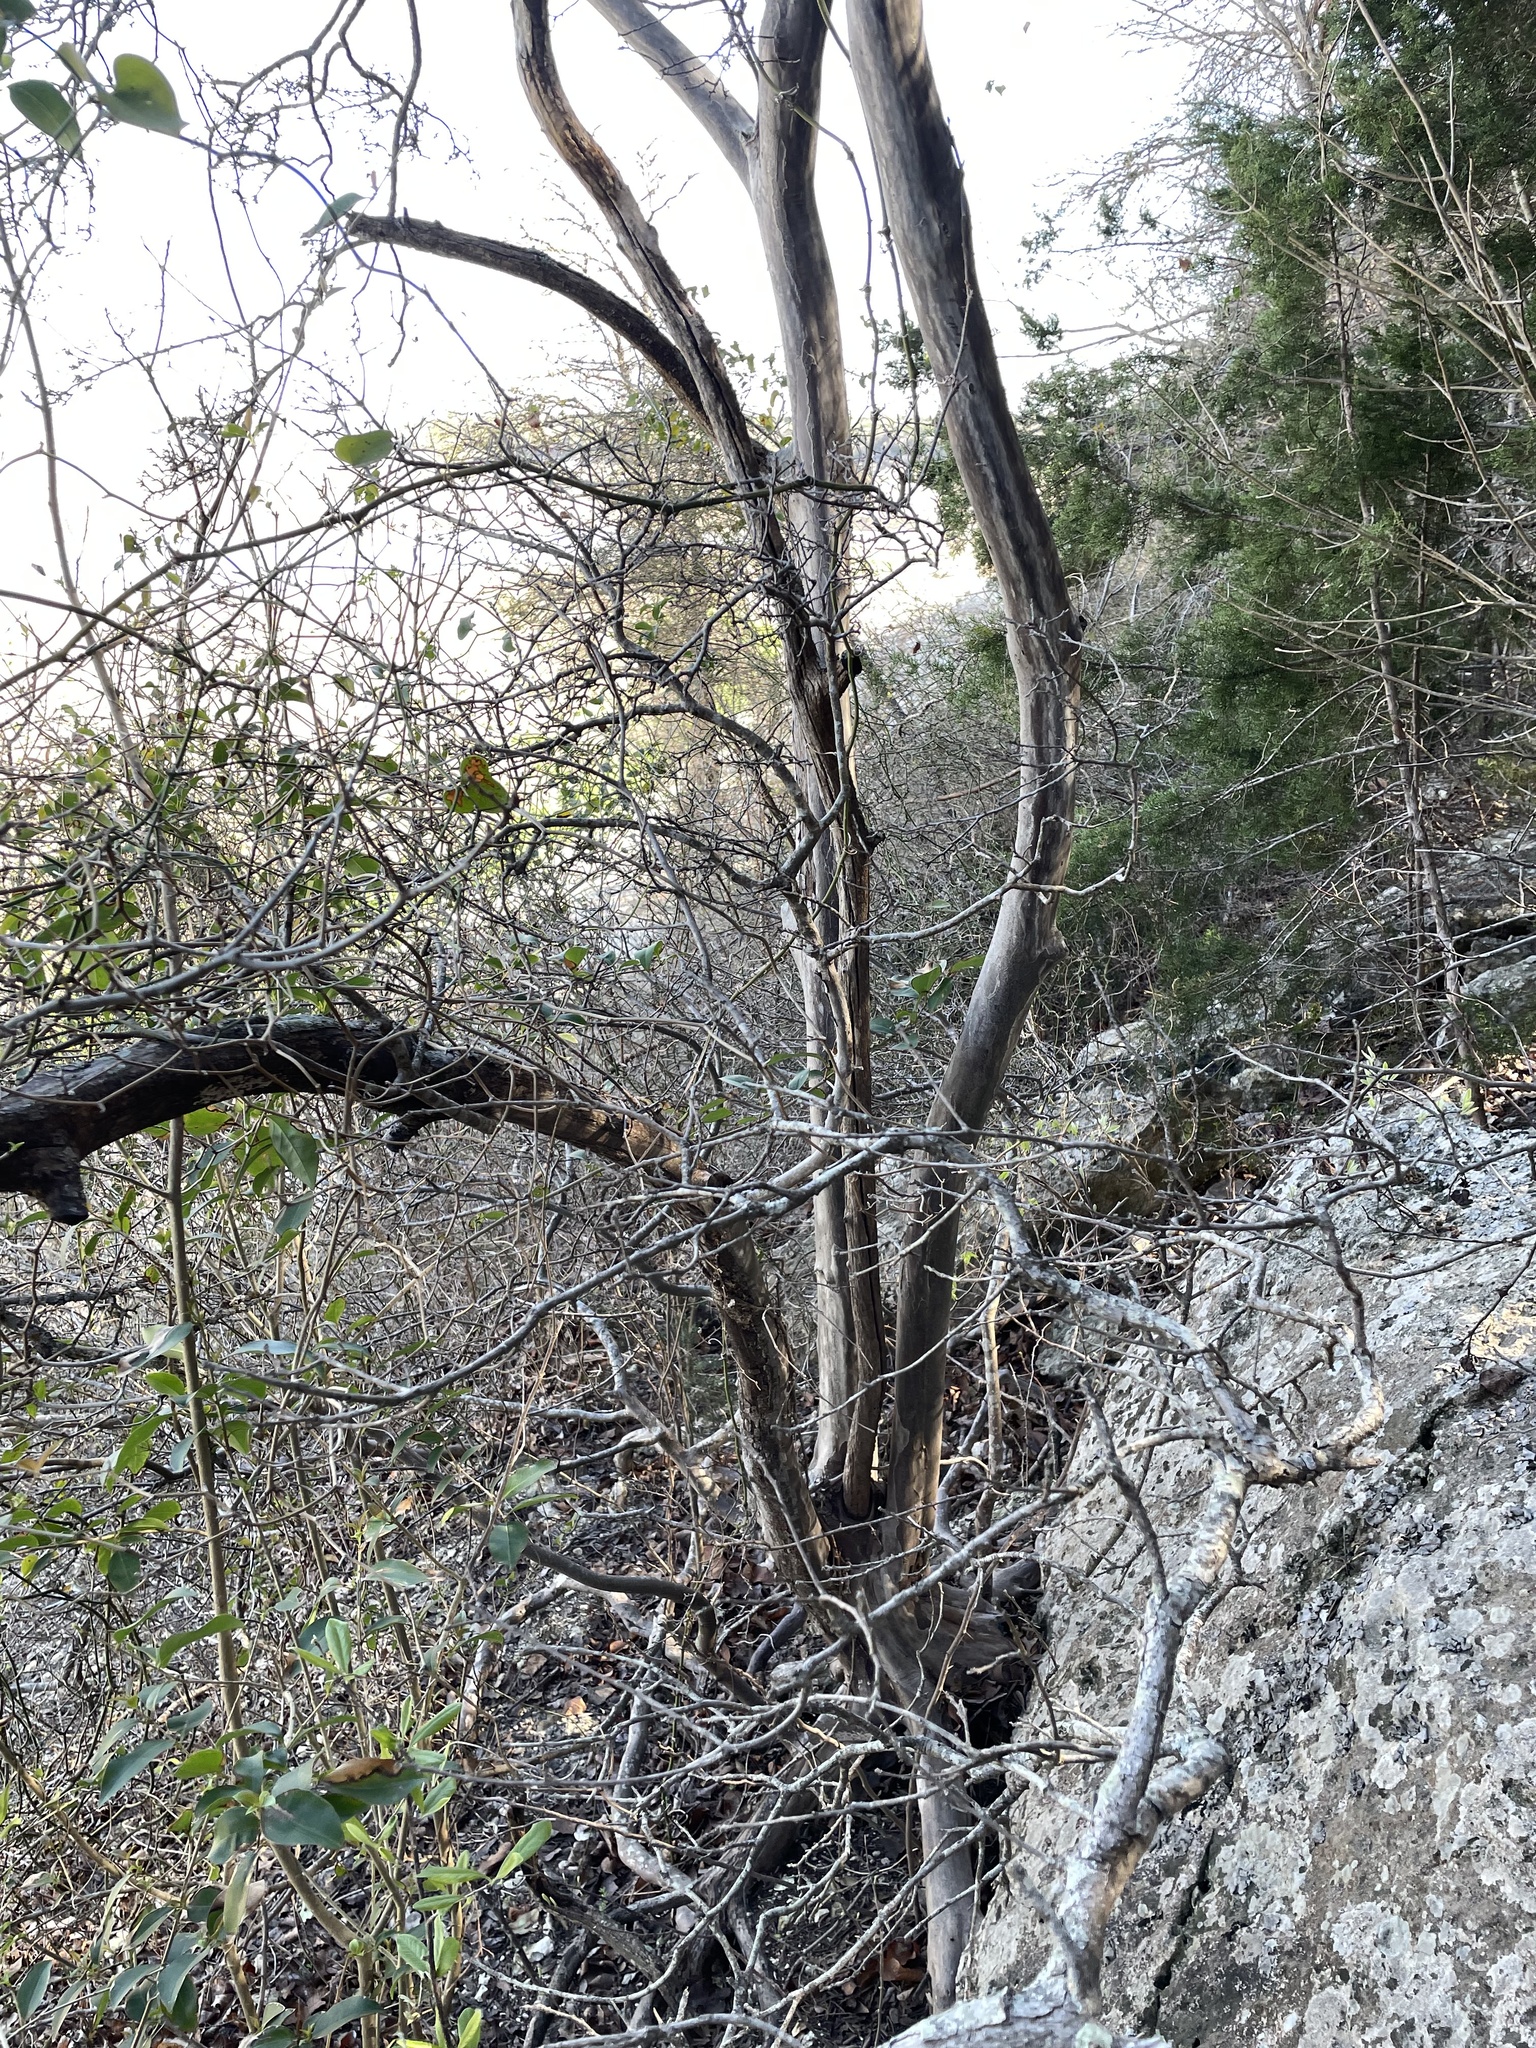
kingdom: Plantae
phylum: Tracheophyta
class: Magnoliopsida
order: Ericales
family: Ebenaceae
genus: Diospyros
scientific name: Diospyros texana
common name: Texas persimmon
